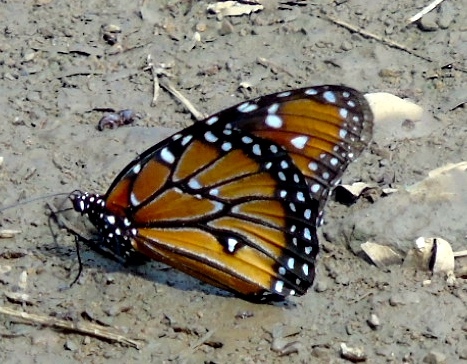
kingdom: Animalia
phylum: Arthropoda
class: Insecta
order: Lepidoptera
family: Nymphalidae
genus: Danaus
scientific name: Danaus gilippus
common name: Queen
